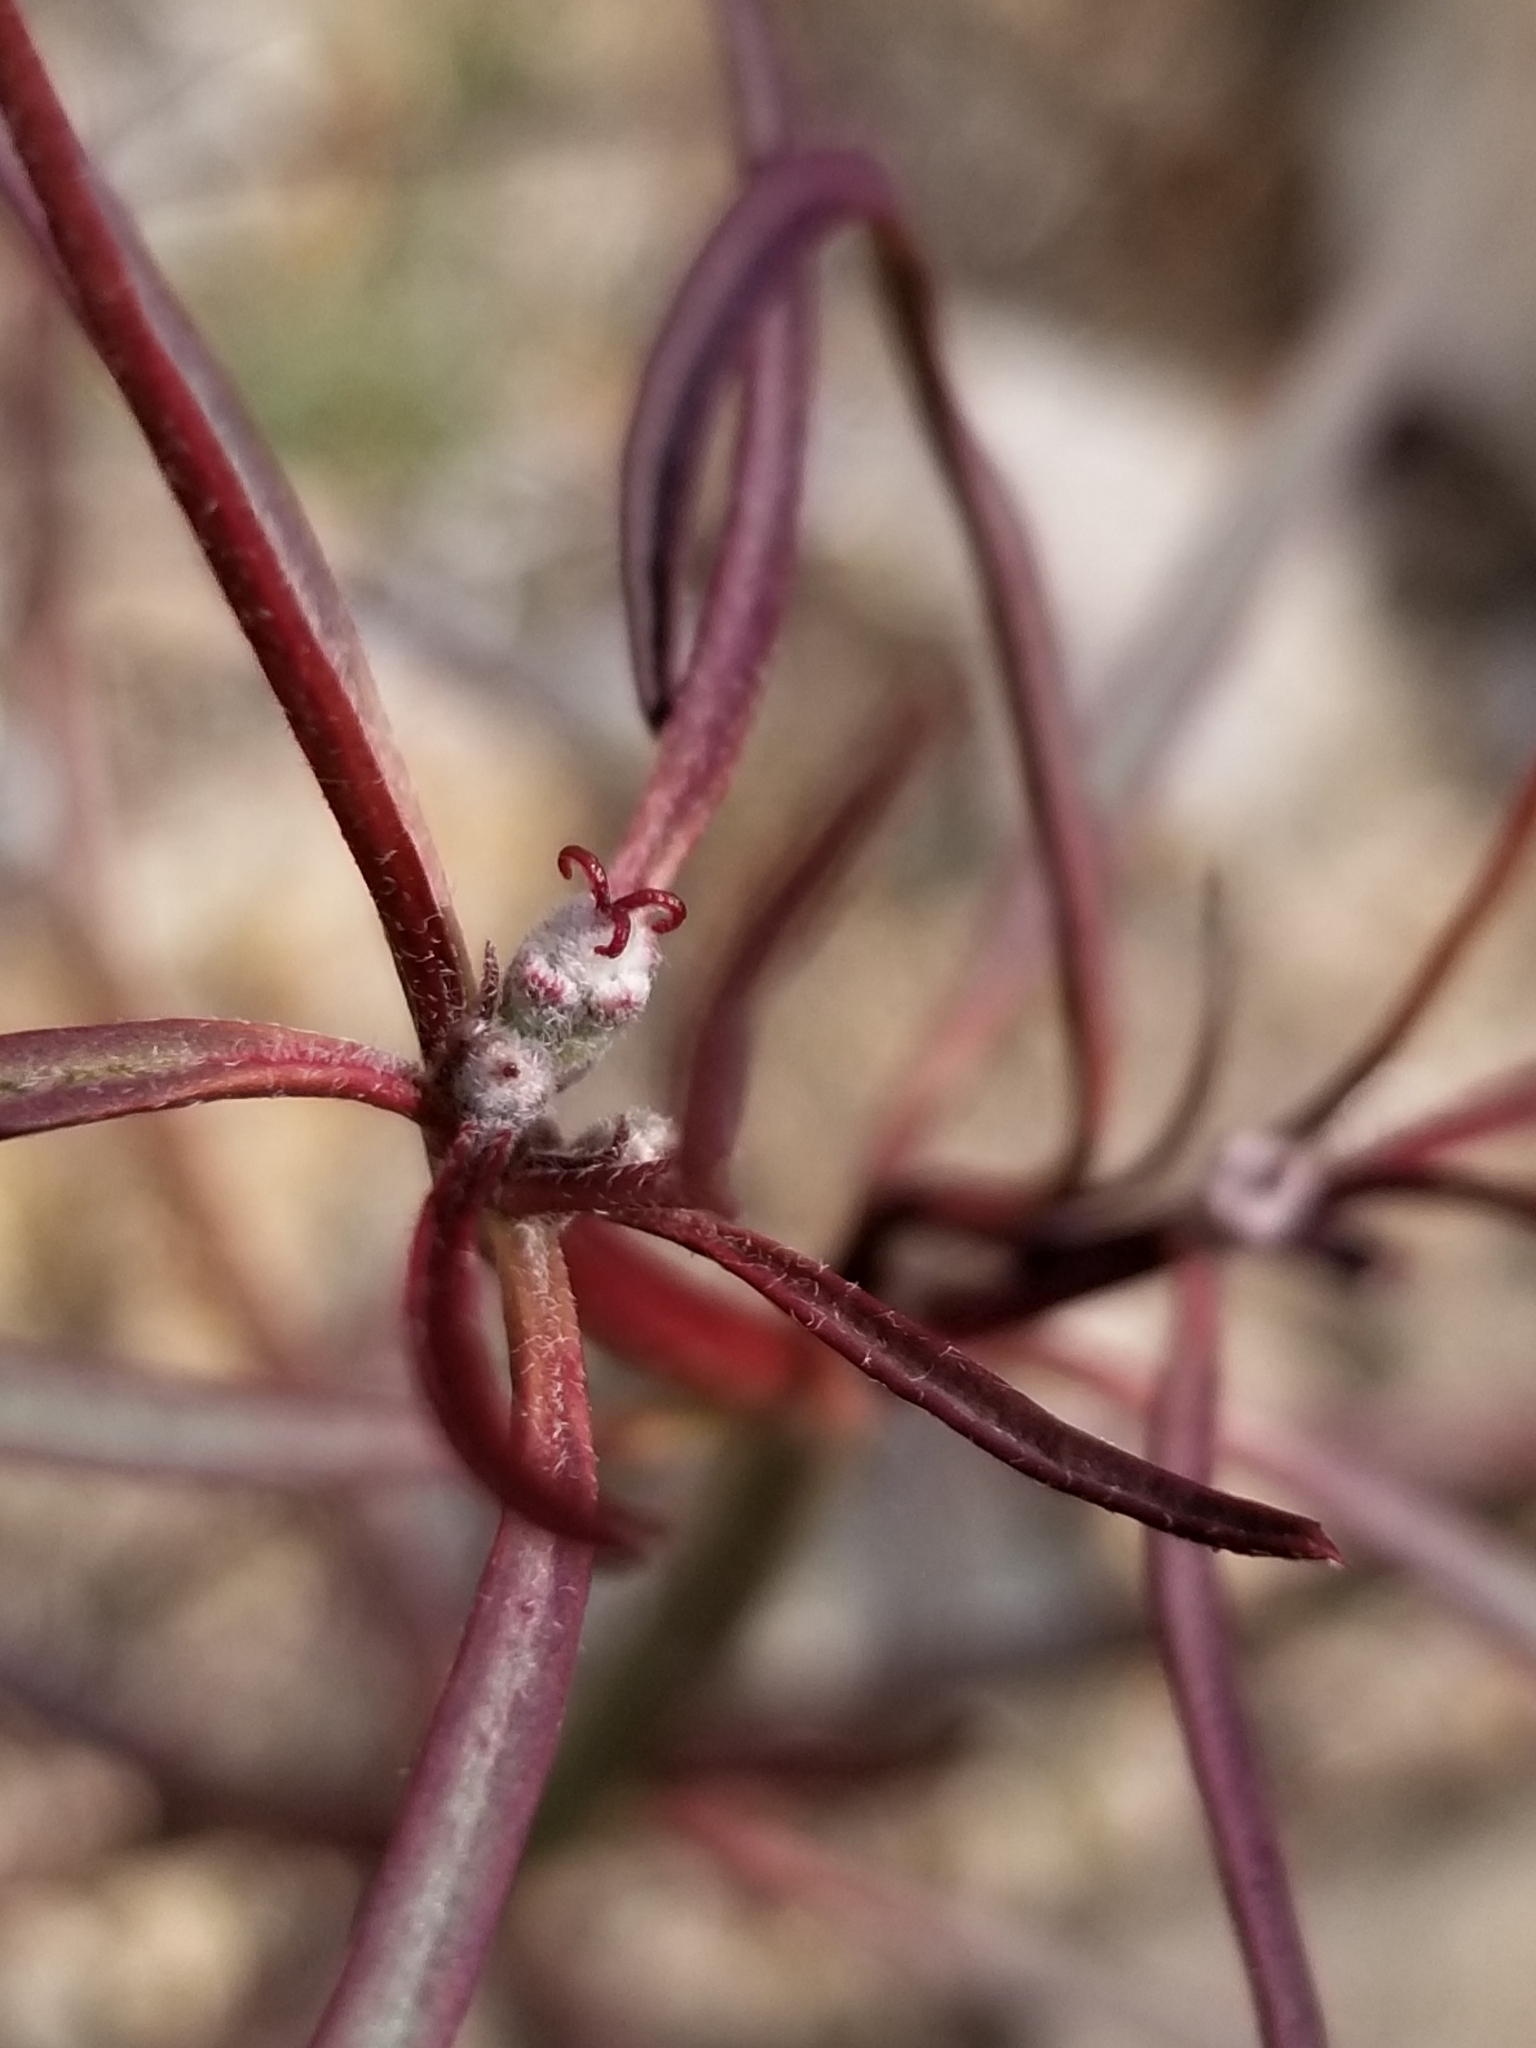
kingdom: Plantae
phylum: Tracheophyta
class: Magnoliopsida
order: Malpighiales
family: Euphorbiaceae
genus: Euphorbia
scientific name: Euphorbia eriantha
